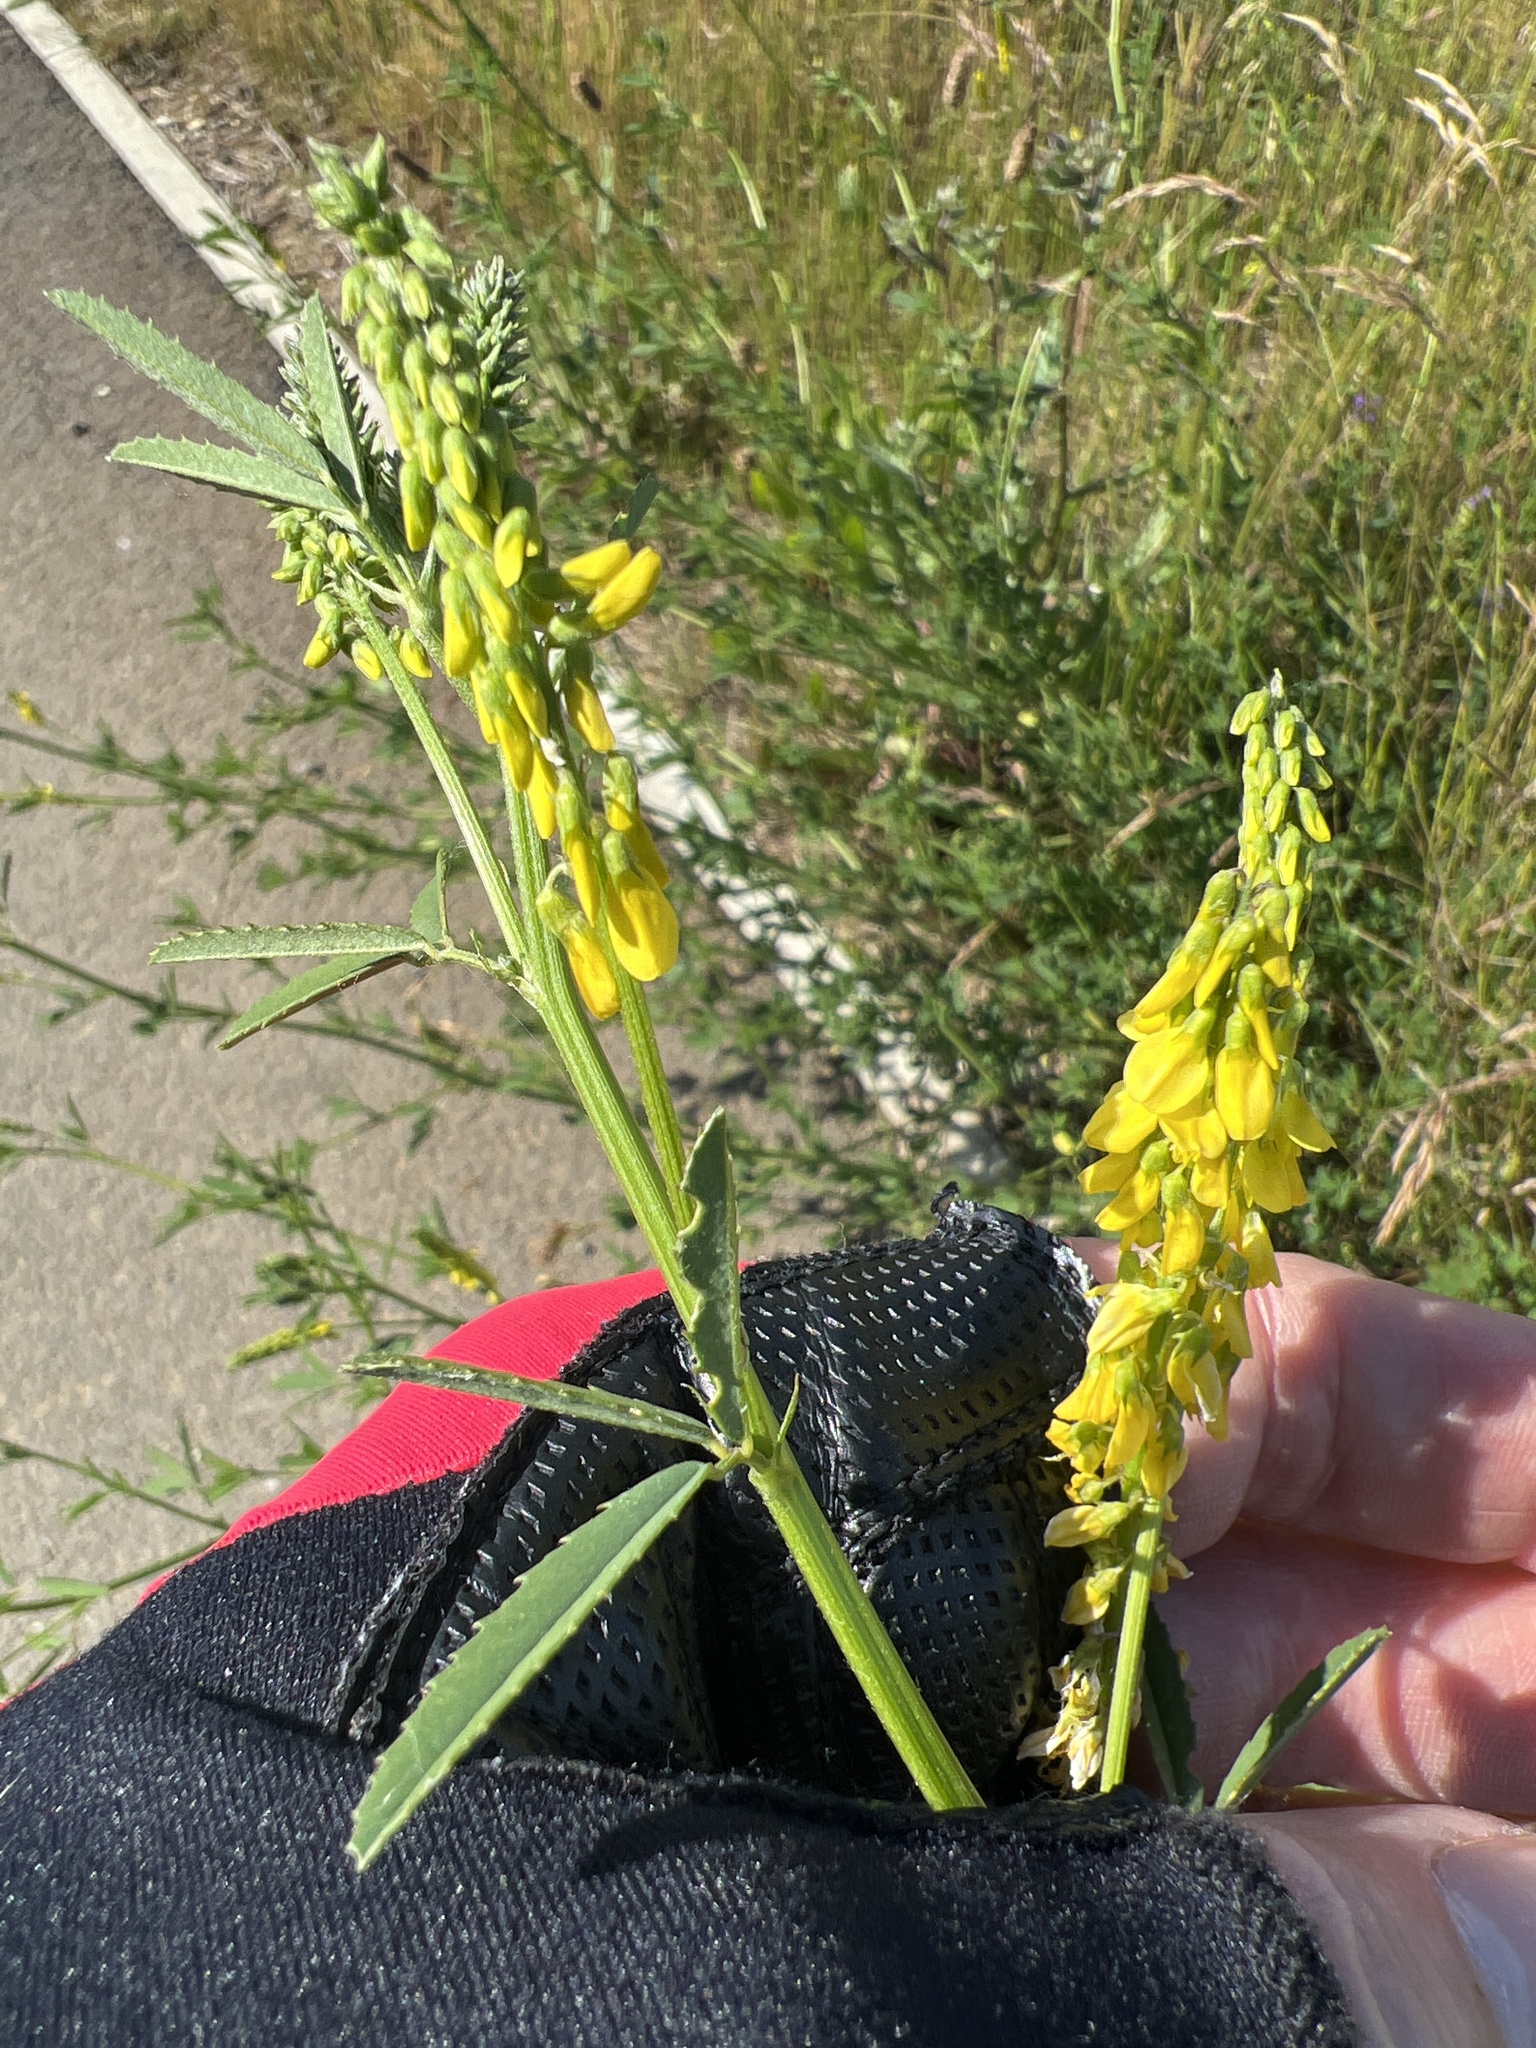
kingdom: Plantae
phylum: Tracheophyta
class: Magnoliopsida
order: Fabales
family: Fabaceae
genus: Melilotus
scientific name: Melilotus officinalis
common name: Sweetclover
